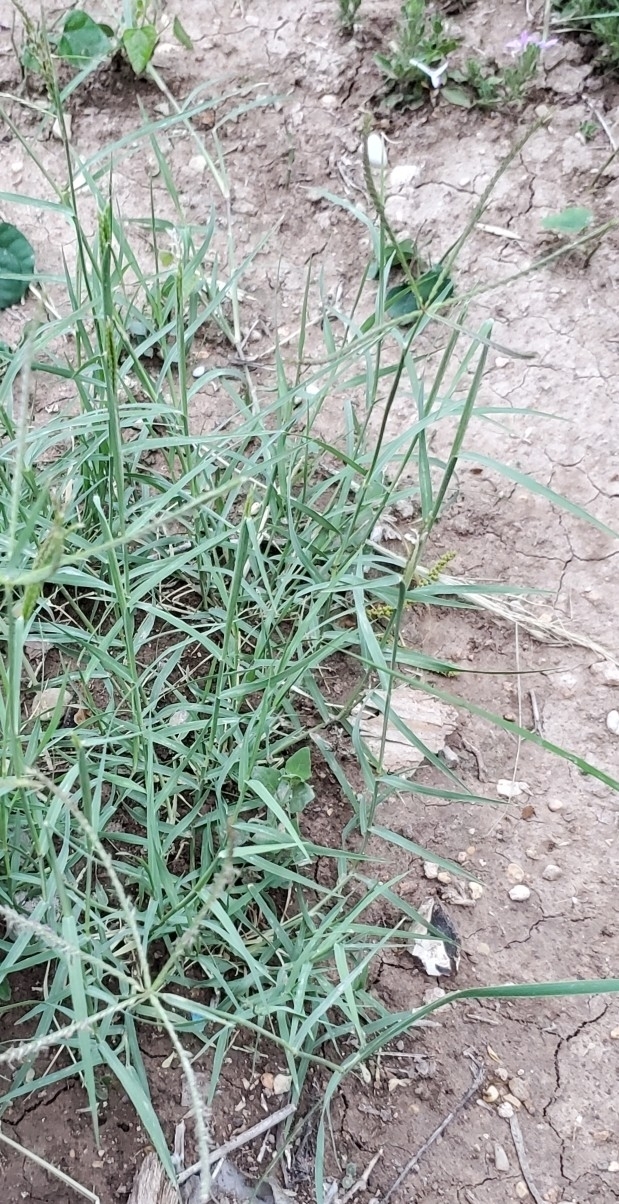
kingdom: Plantae
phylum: Tracheophyta
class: Liliopsida
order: Poales
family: Poaceae
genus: Cynodon
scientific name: Cynodon dactylon
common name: Bermuda grass
